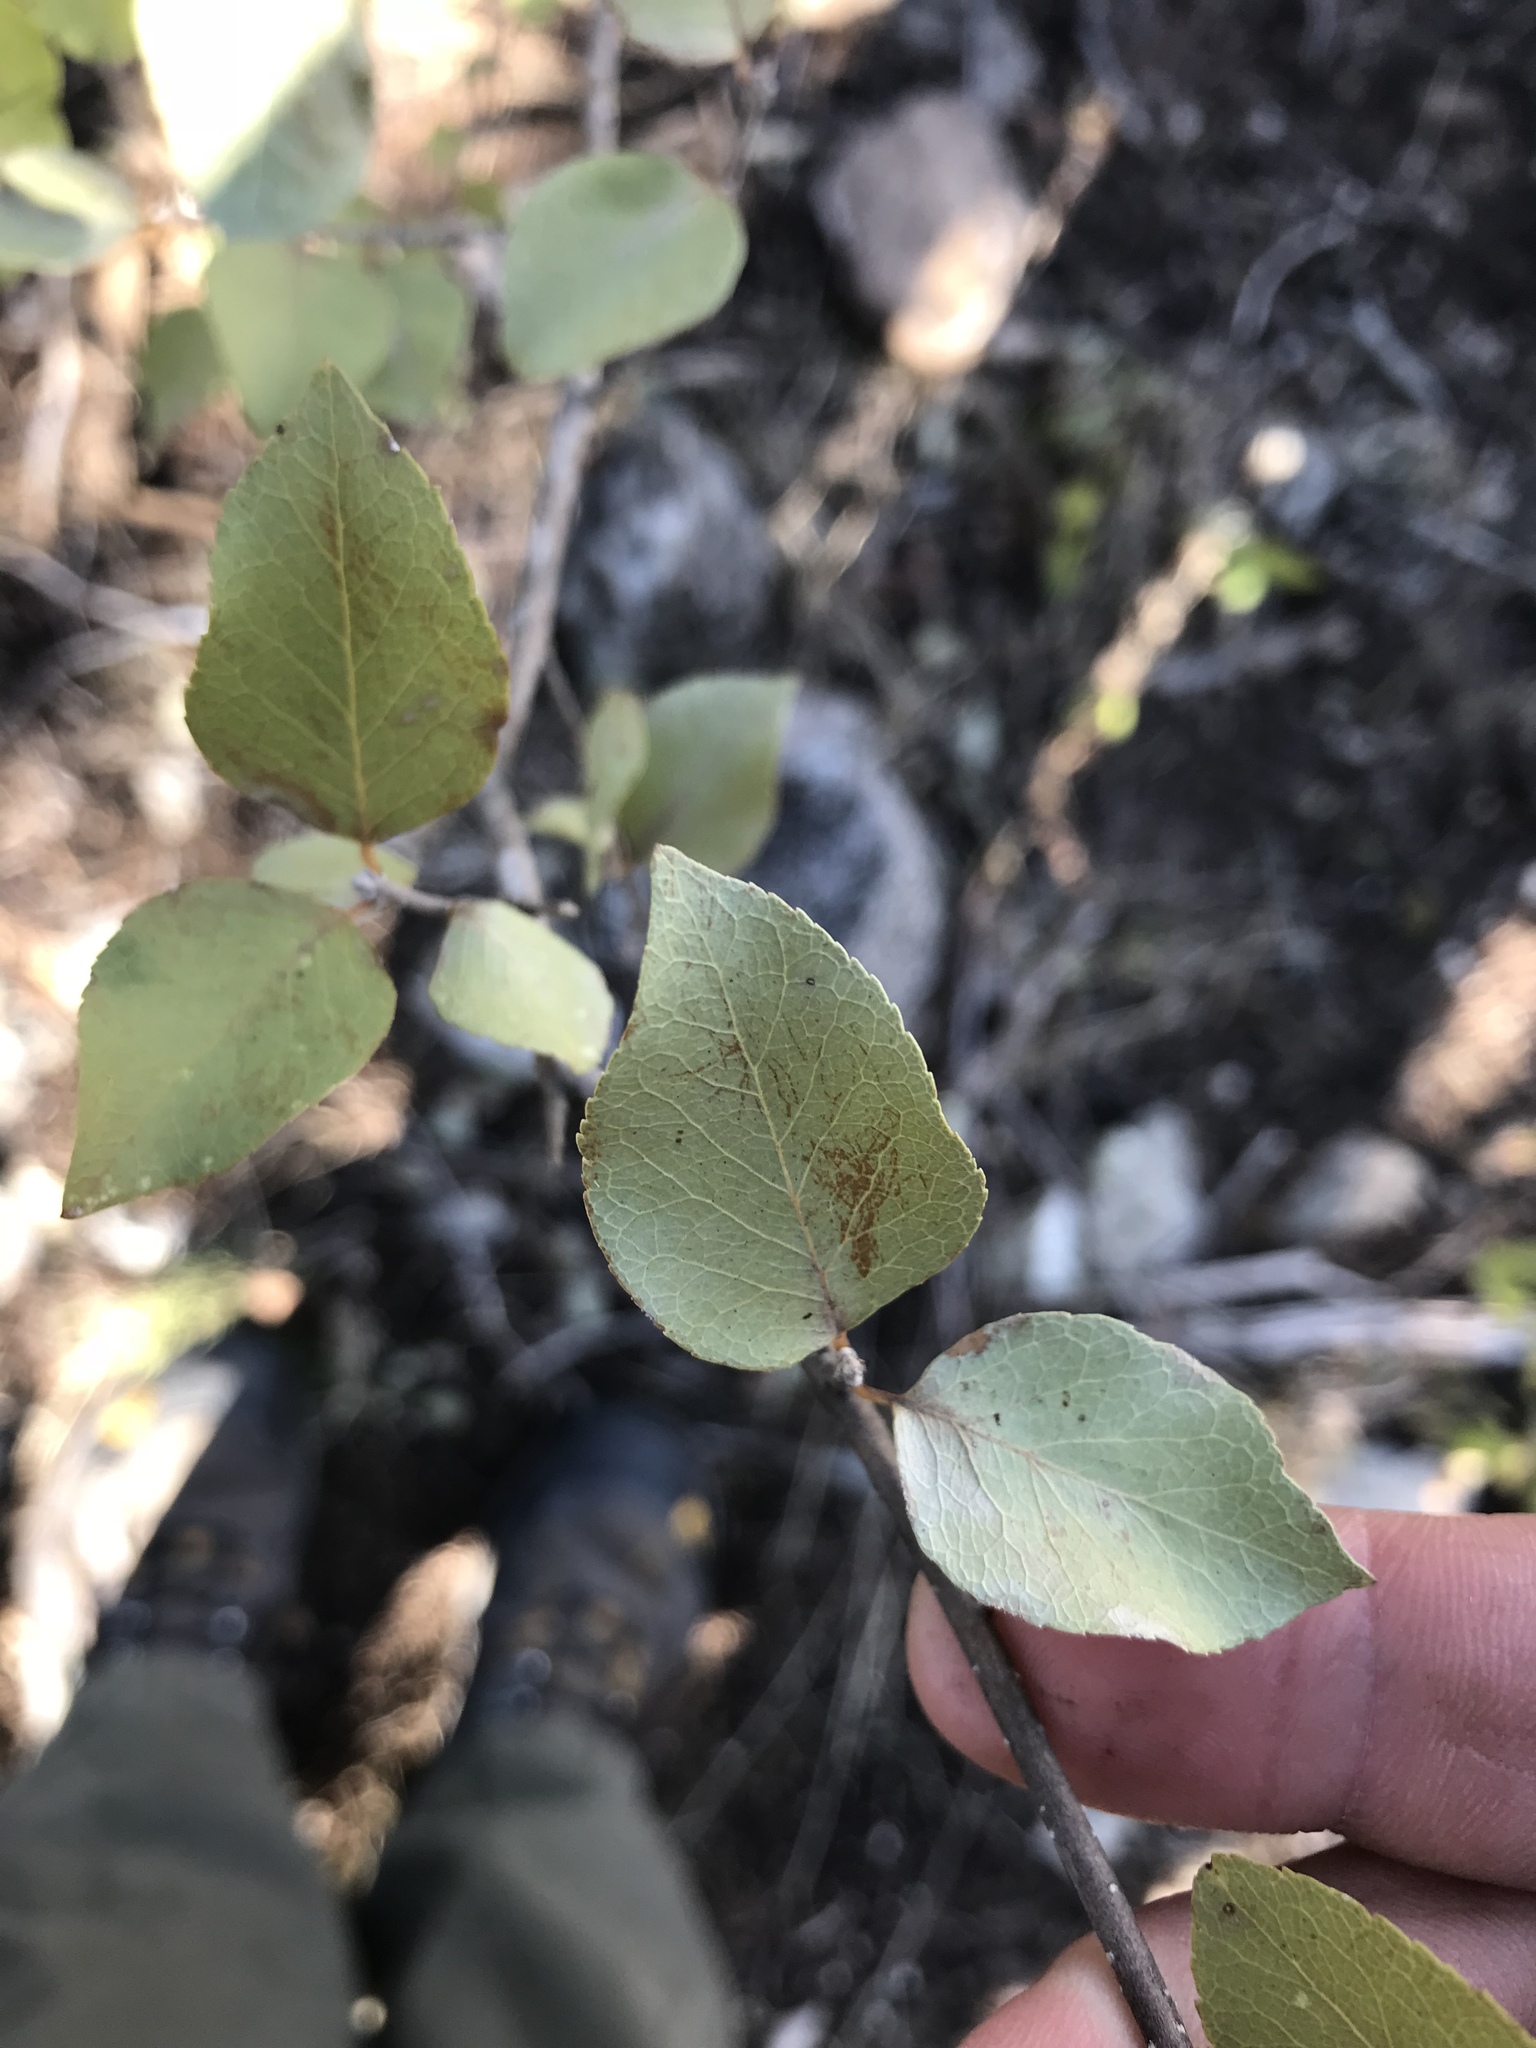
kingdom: Plantae
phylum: Tracheophyta
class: Magnoliopsida
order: Lamiales
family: Oleaceae
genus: Forestiera
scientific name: Forestiera reticulata
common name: Netleaf swamp-privet
